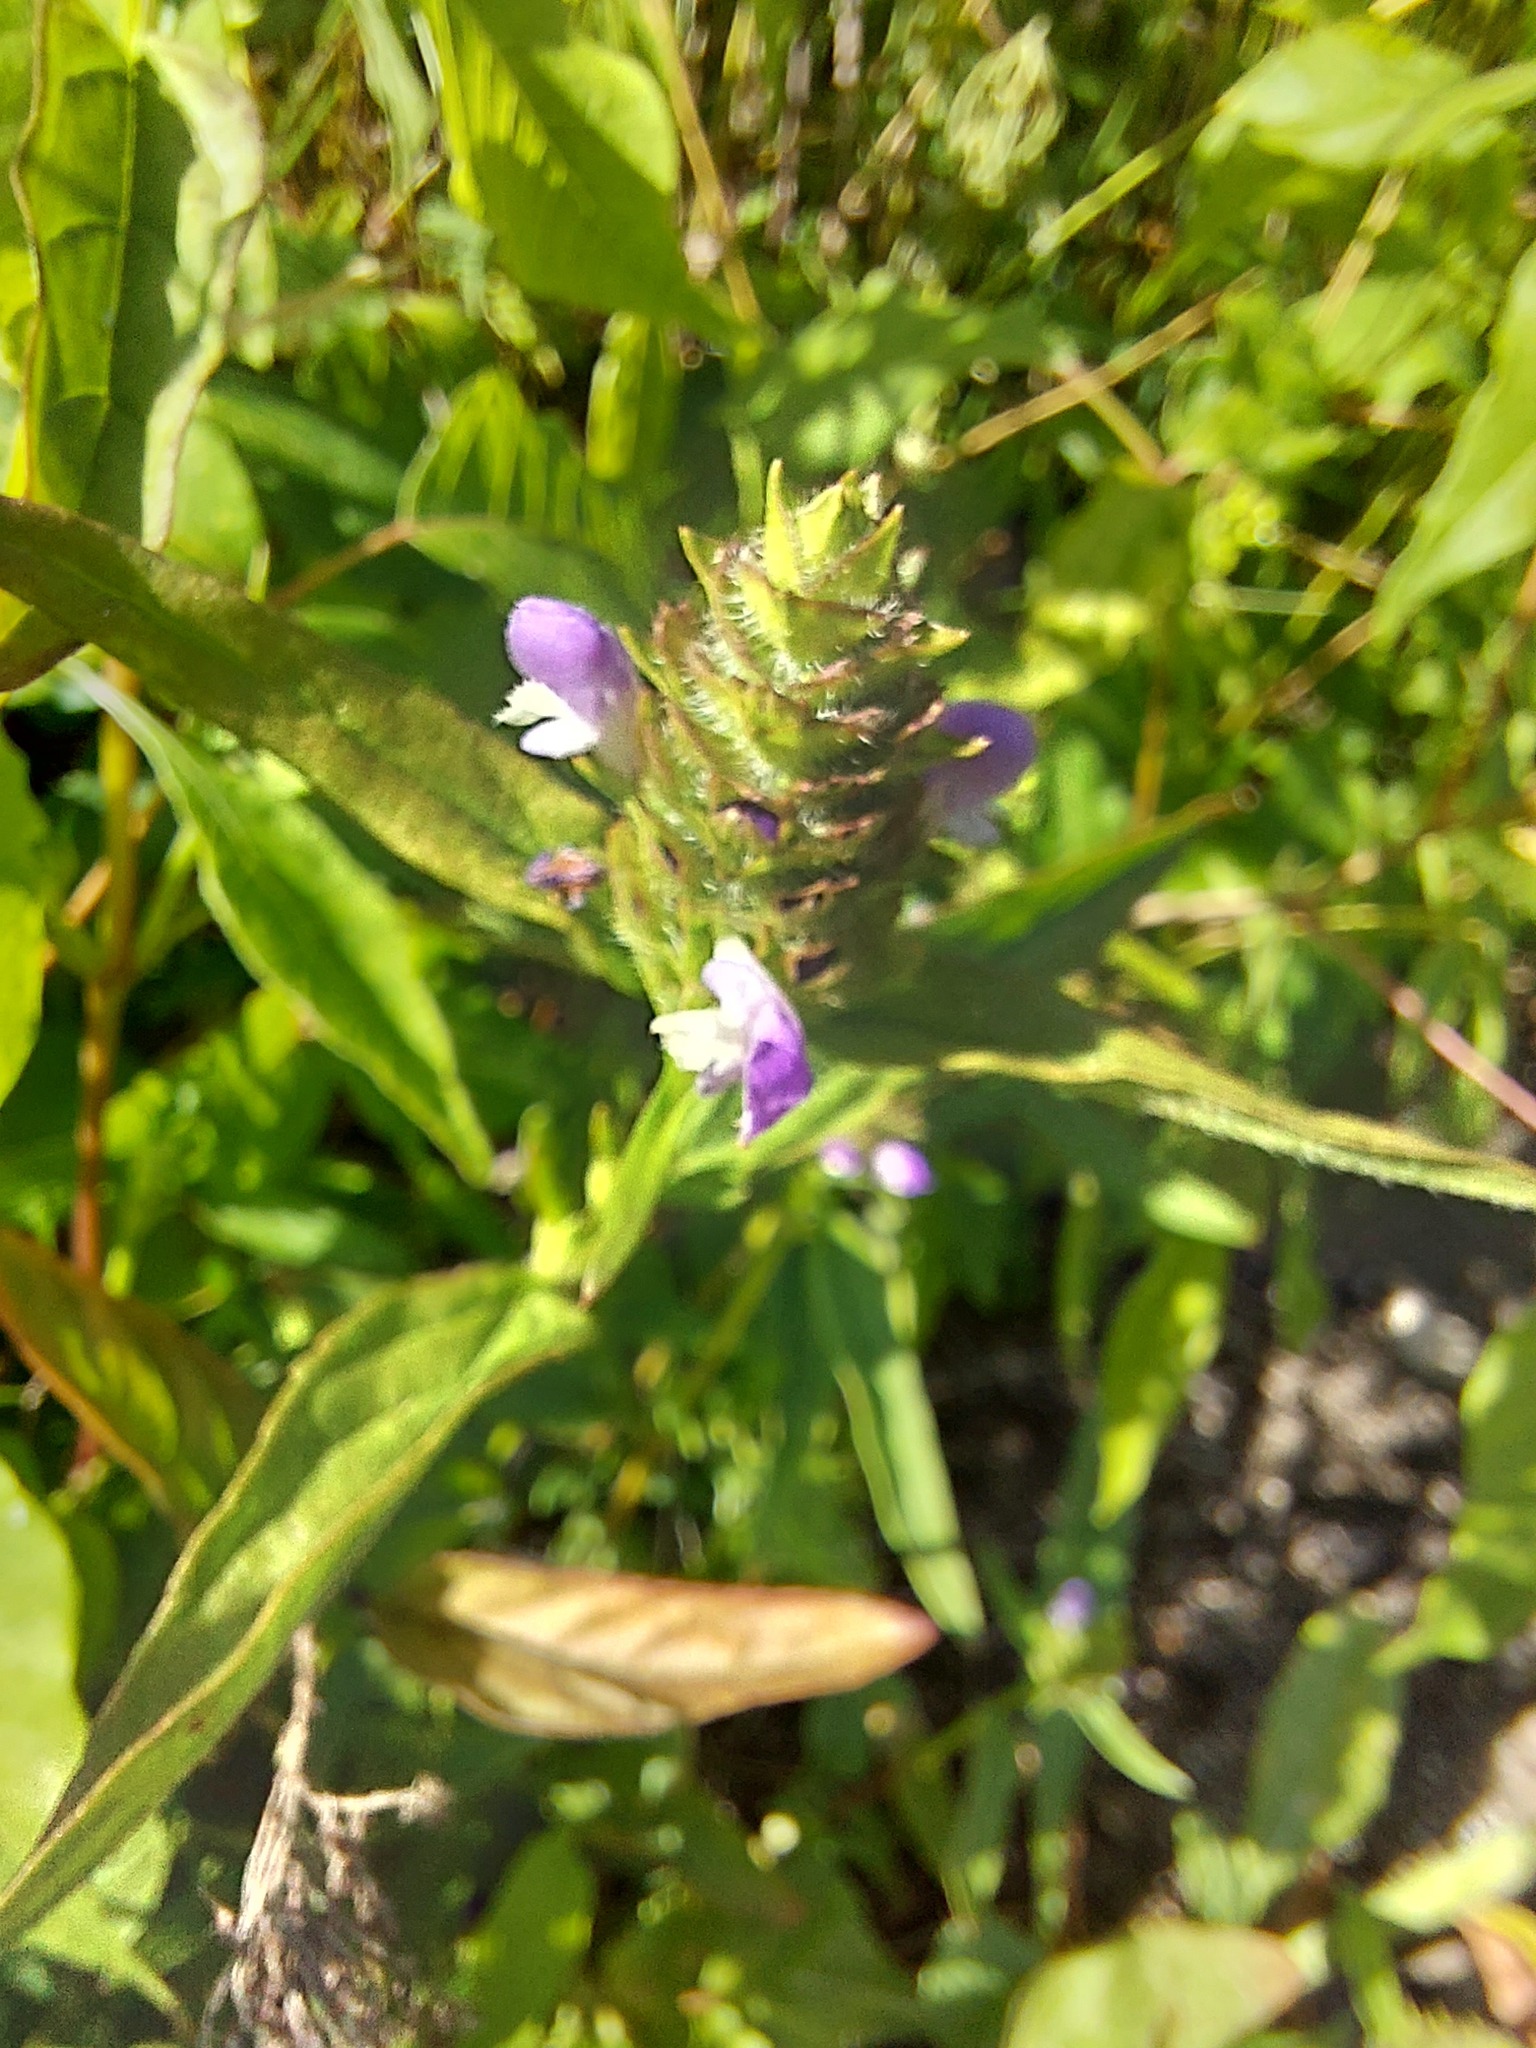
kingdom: Plantae
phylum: Tracheophyta
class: Magnoliopsida
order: Lamiales
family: Lamiaceae
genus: Prunella
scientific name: Prunella vulgaris
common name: Heal-all
